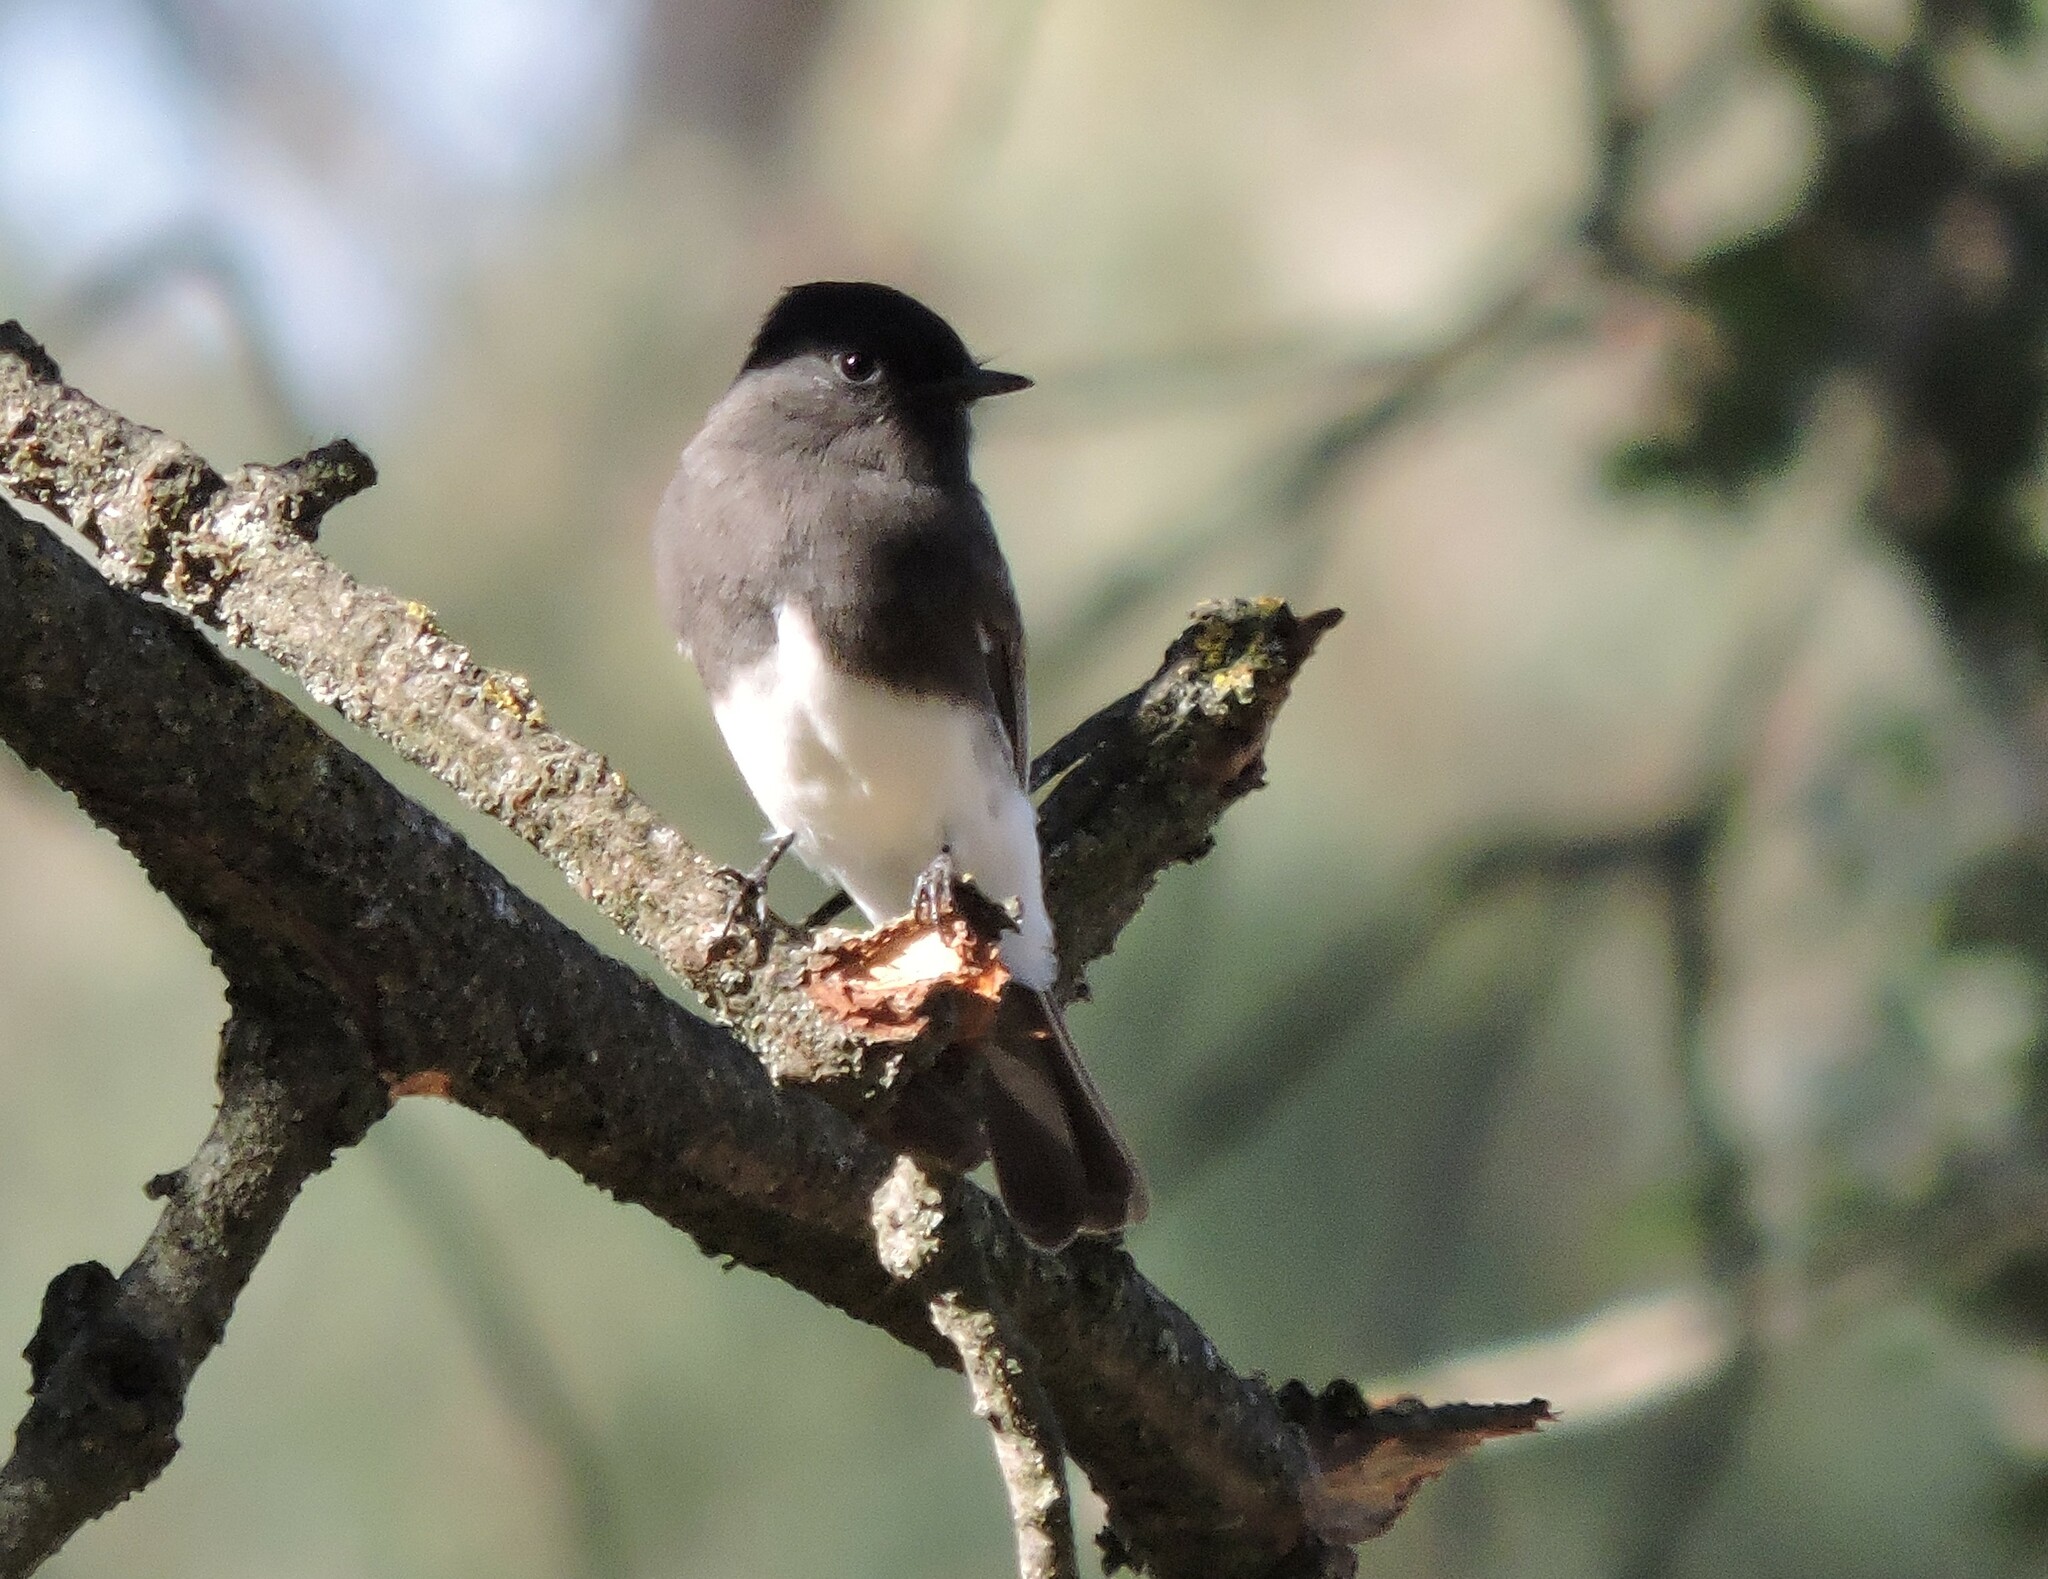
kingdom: Animalia
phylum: Chordata
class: Aves
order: Passeriformes
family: Tyrannidae
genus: Sayornis
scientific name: Sayornis nigricans
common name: Black phoebe
